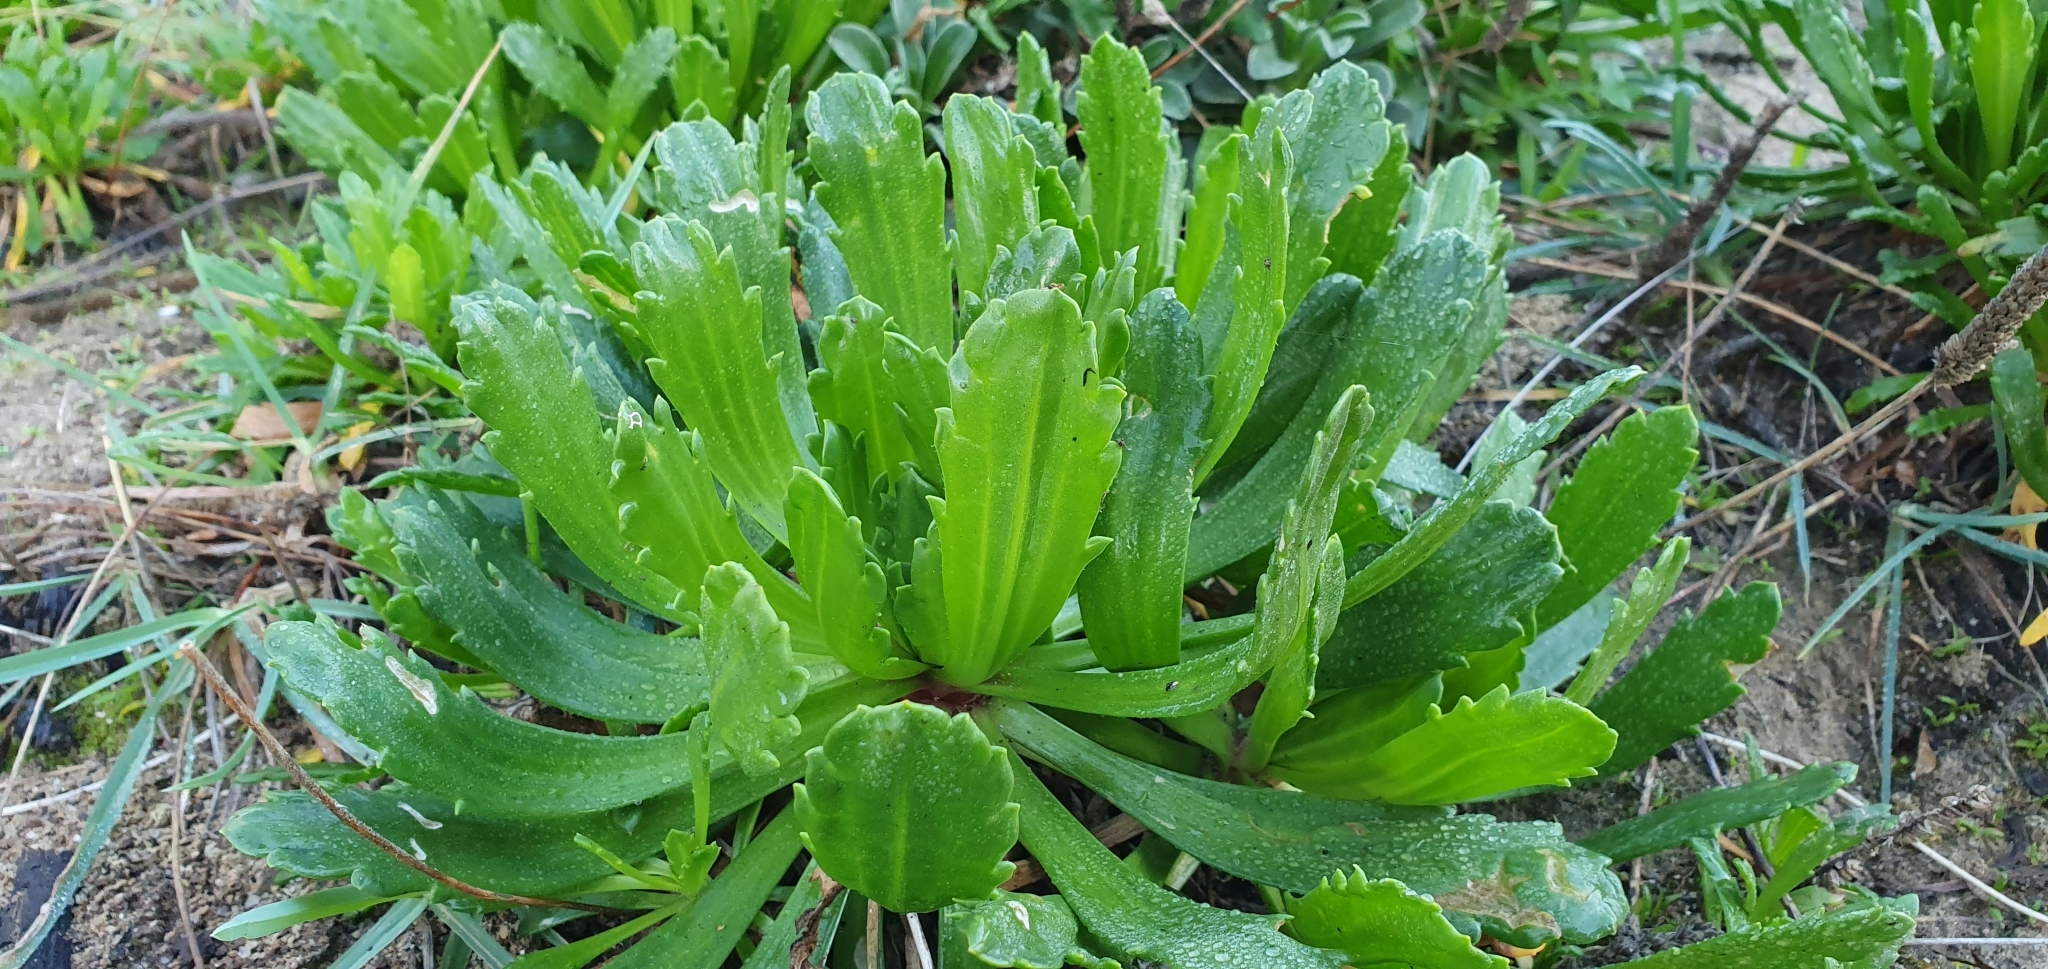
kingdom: Plantae
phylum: Tracheophyta
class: Magnoliopsida
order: Lamiales
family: Plantaginaceae
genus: Plantago
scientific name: Plantago macrorhiza
